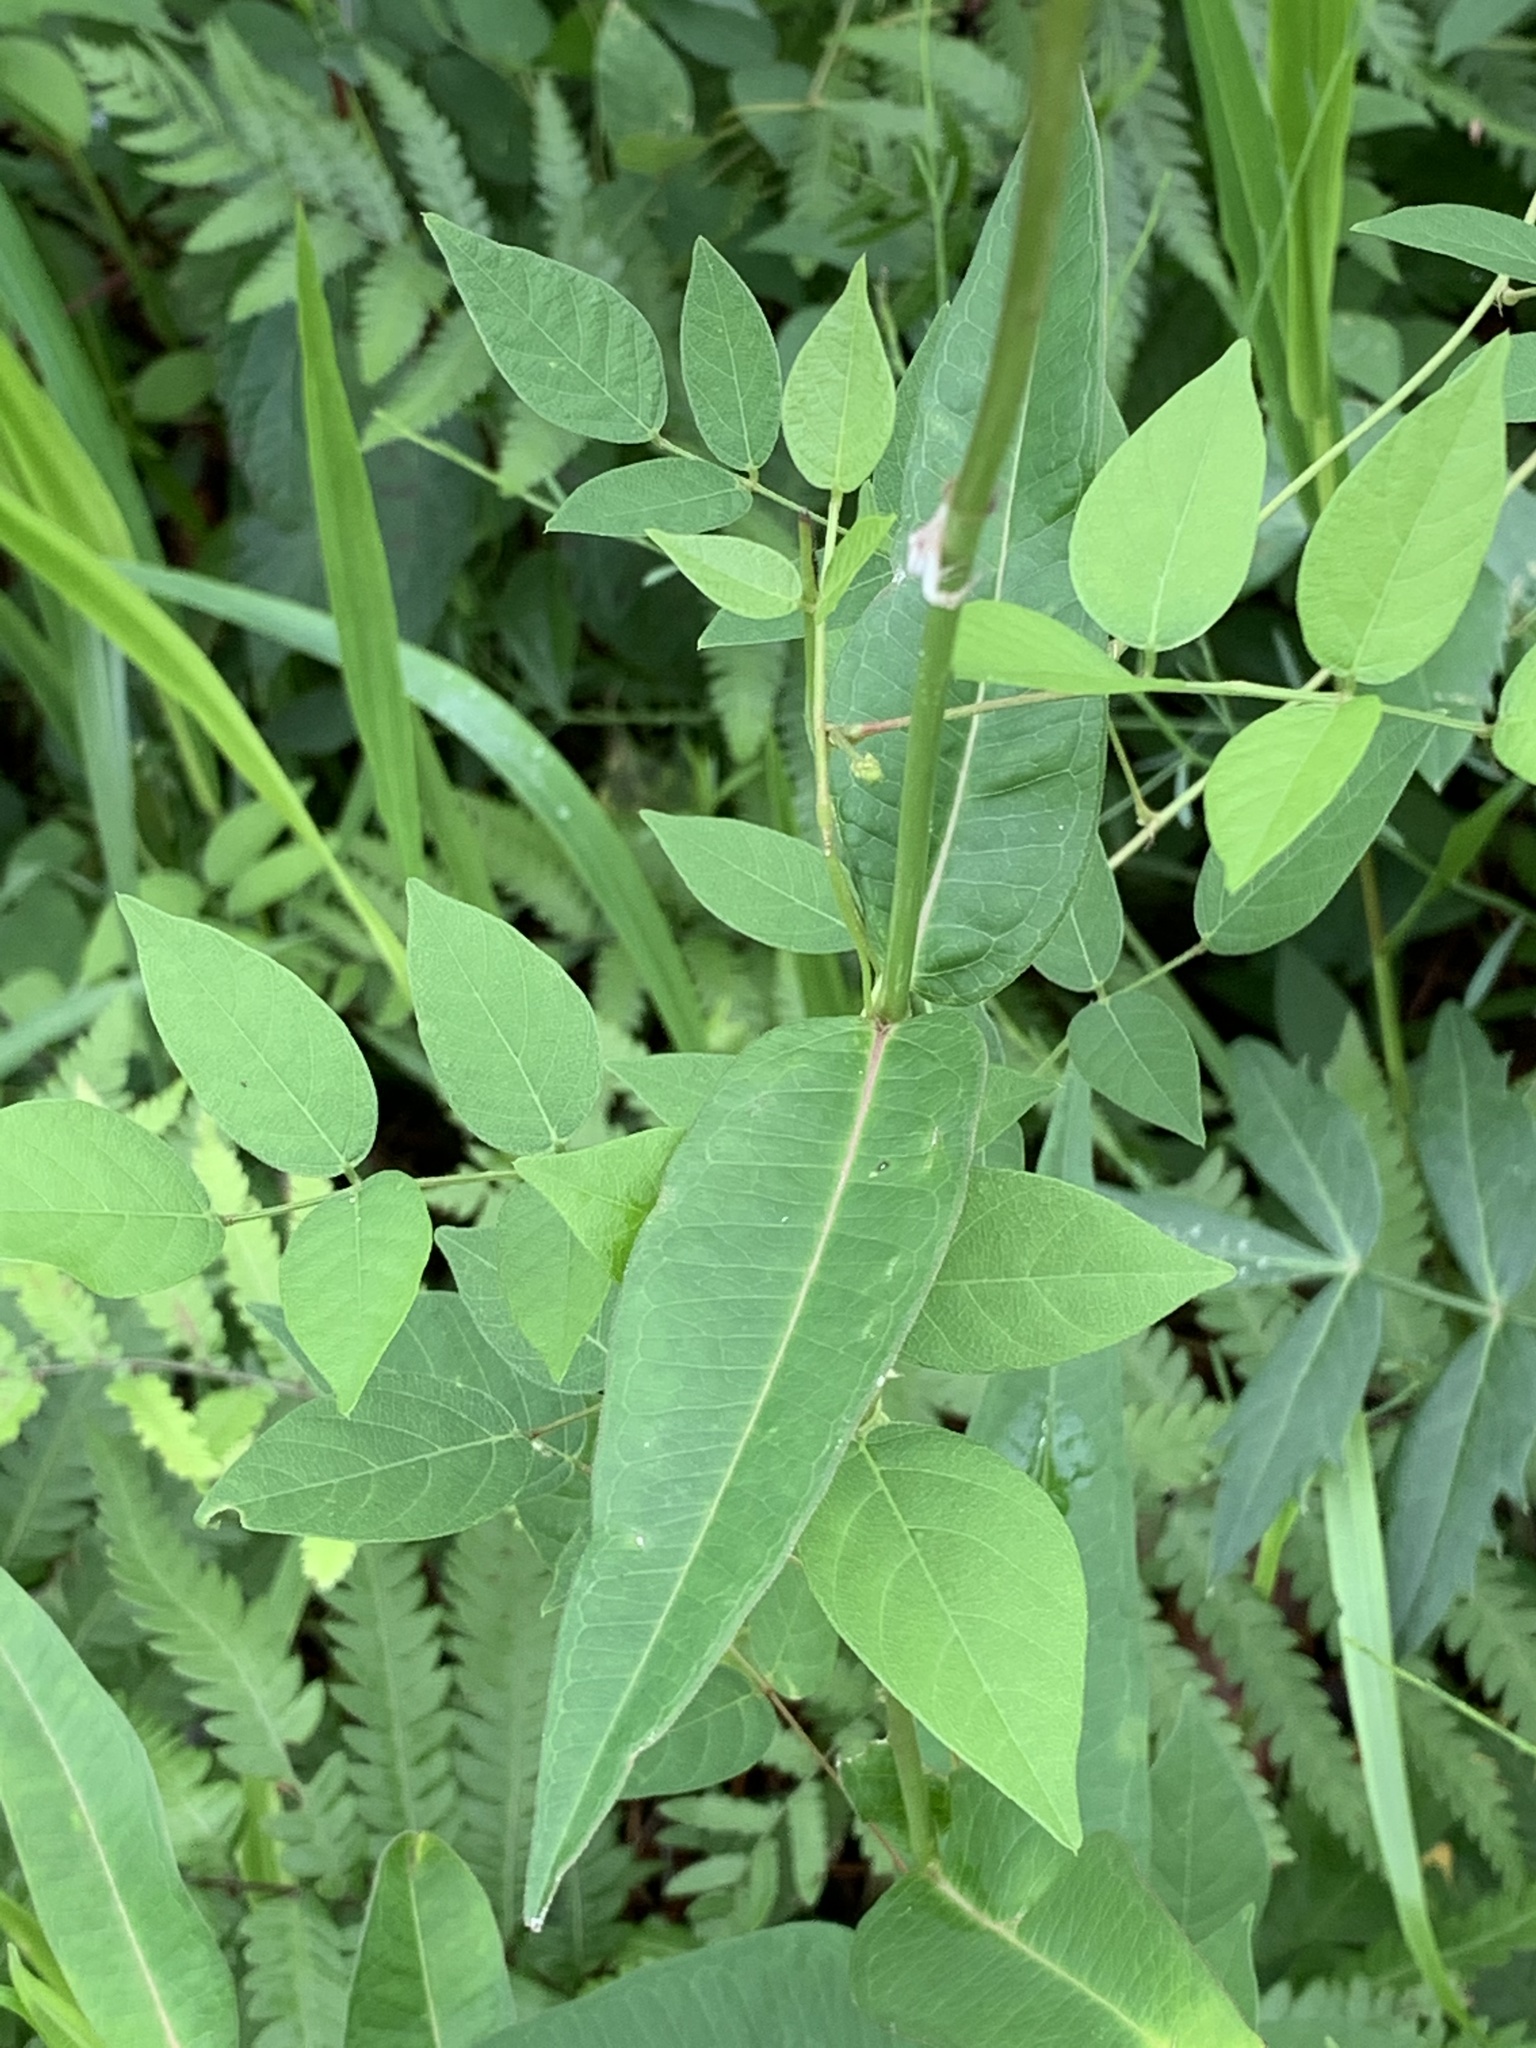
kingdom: Plantae
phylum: Tracheophyta
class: Magnoliopsida
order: Gentianales
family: Apocynaceae
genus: Asclepias
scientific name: Asclepias rubra
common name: Red milkweed
